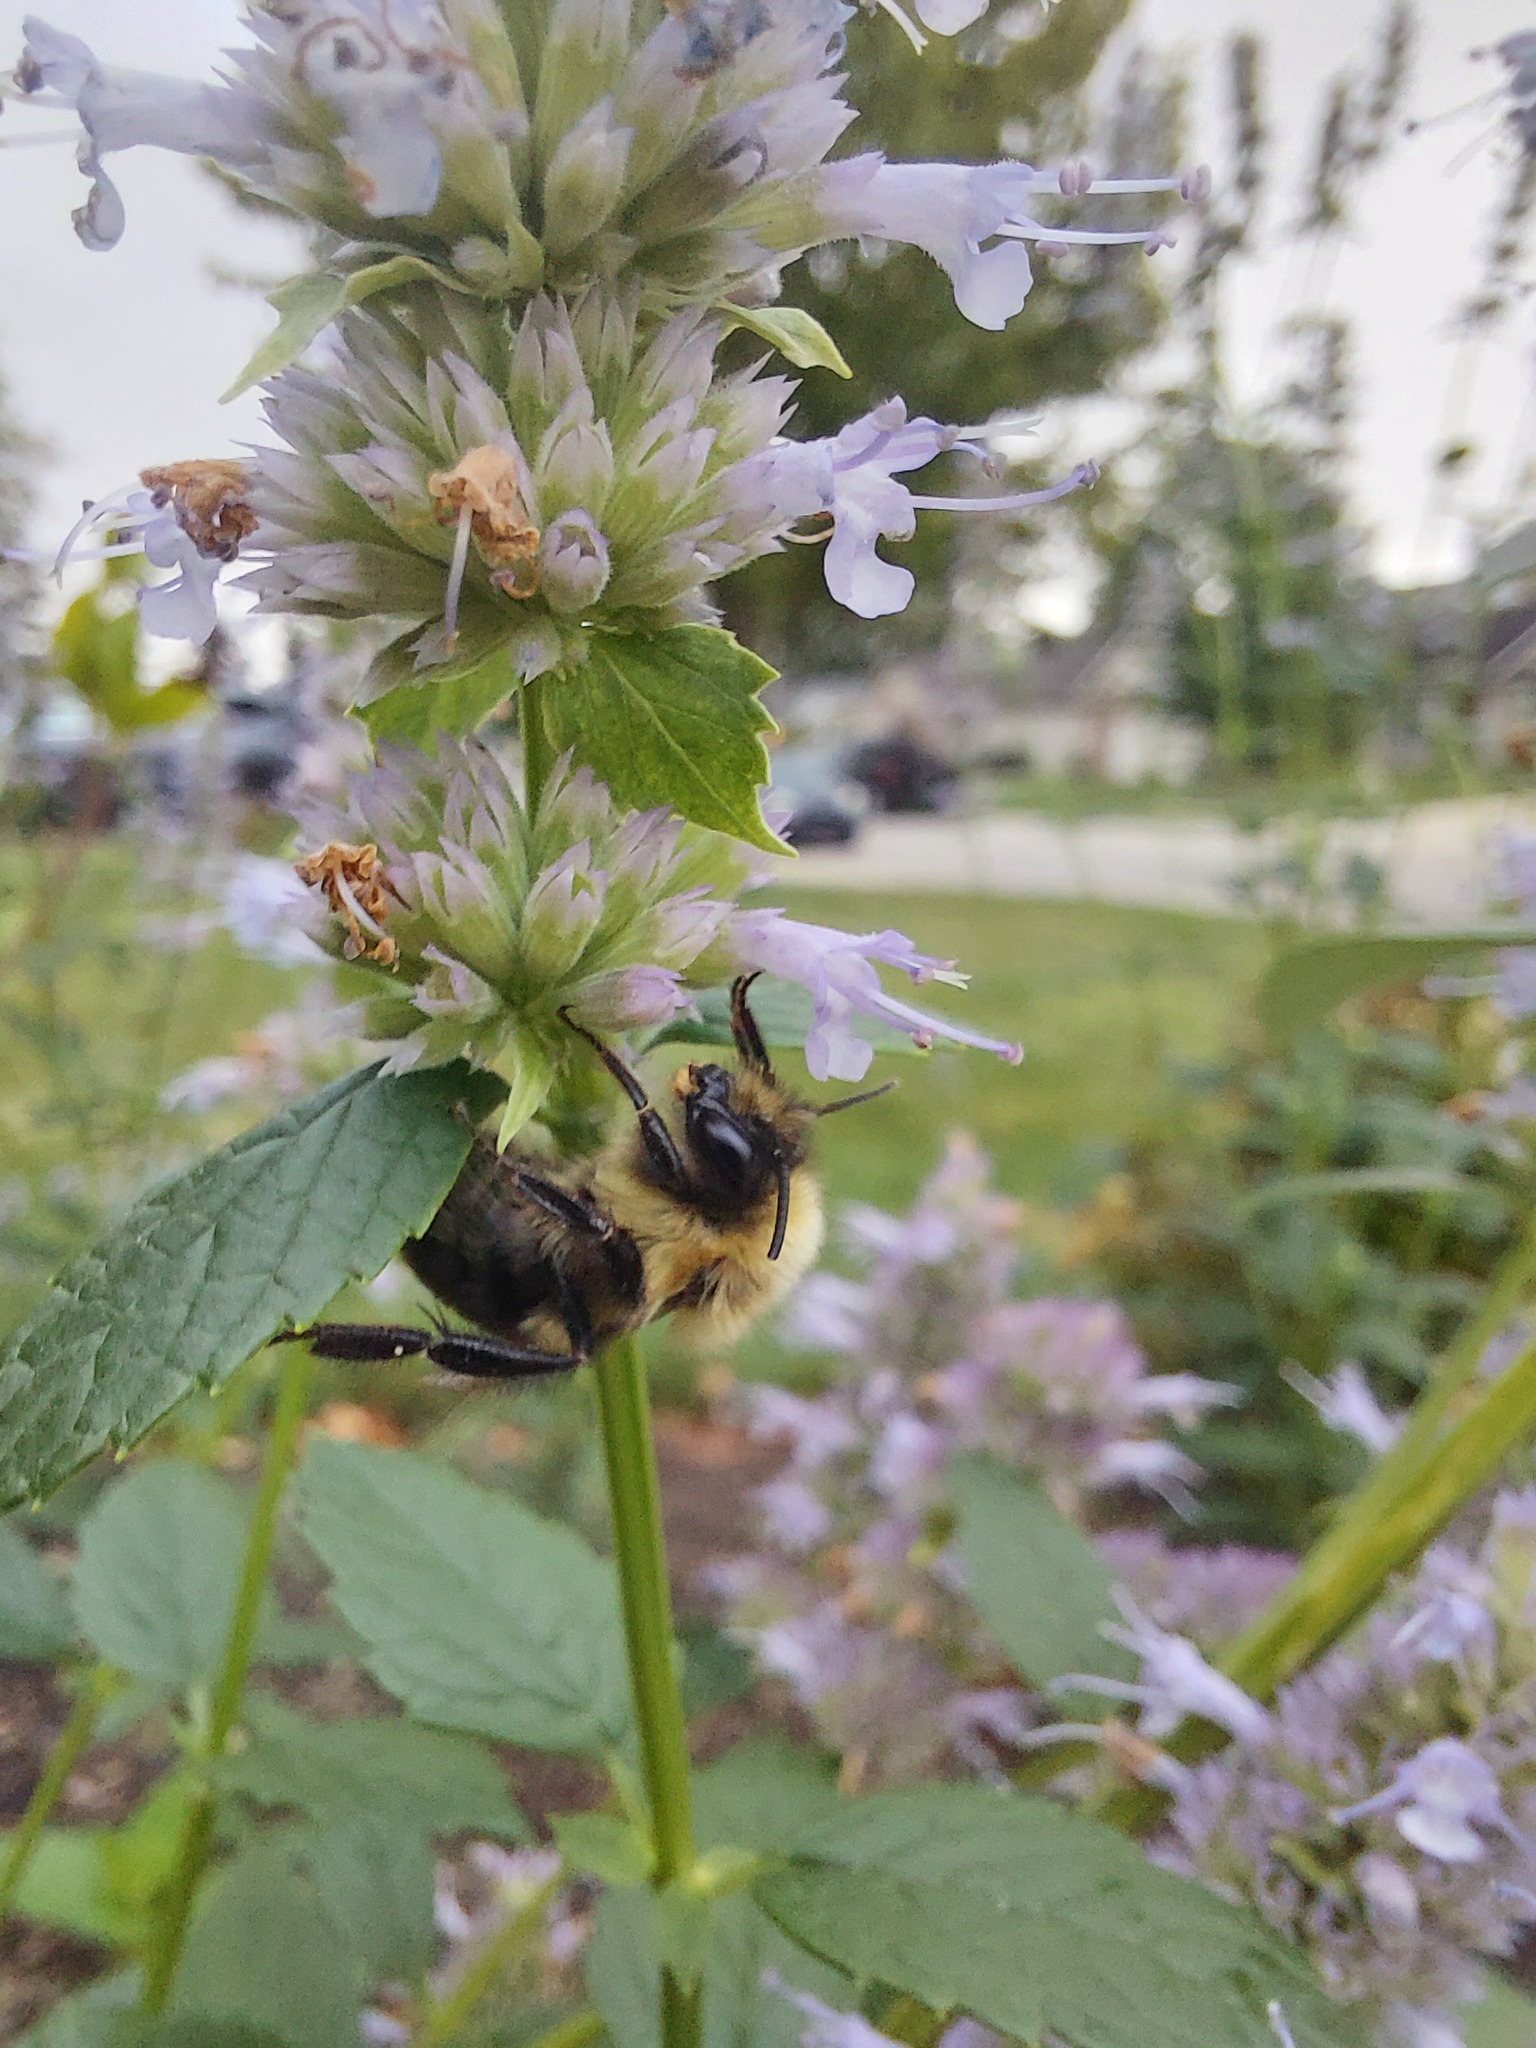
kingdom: Animalia
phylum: Arthropoda
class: Insecta
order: Hymenoptera
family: Apidae
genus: Bombus
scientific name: Bombus impatiens
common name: Common eastern bumble bee
